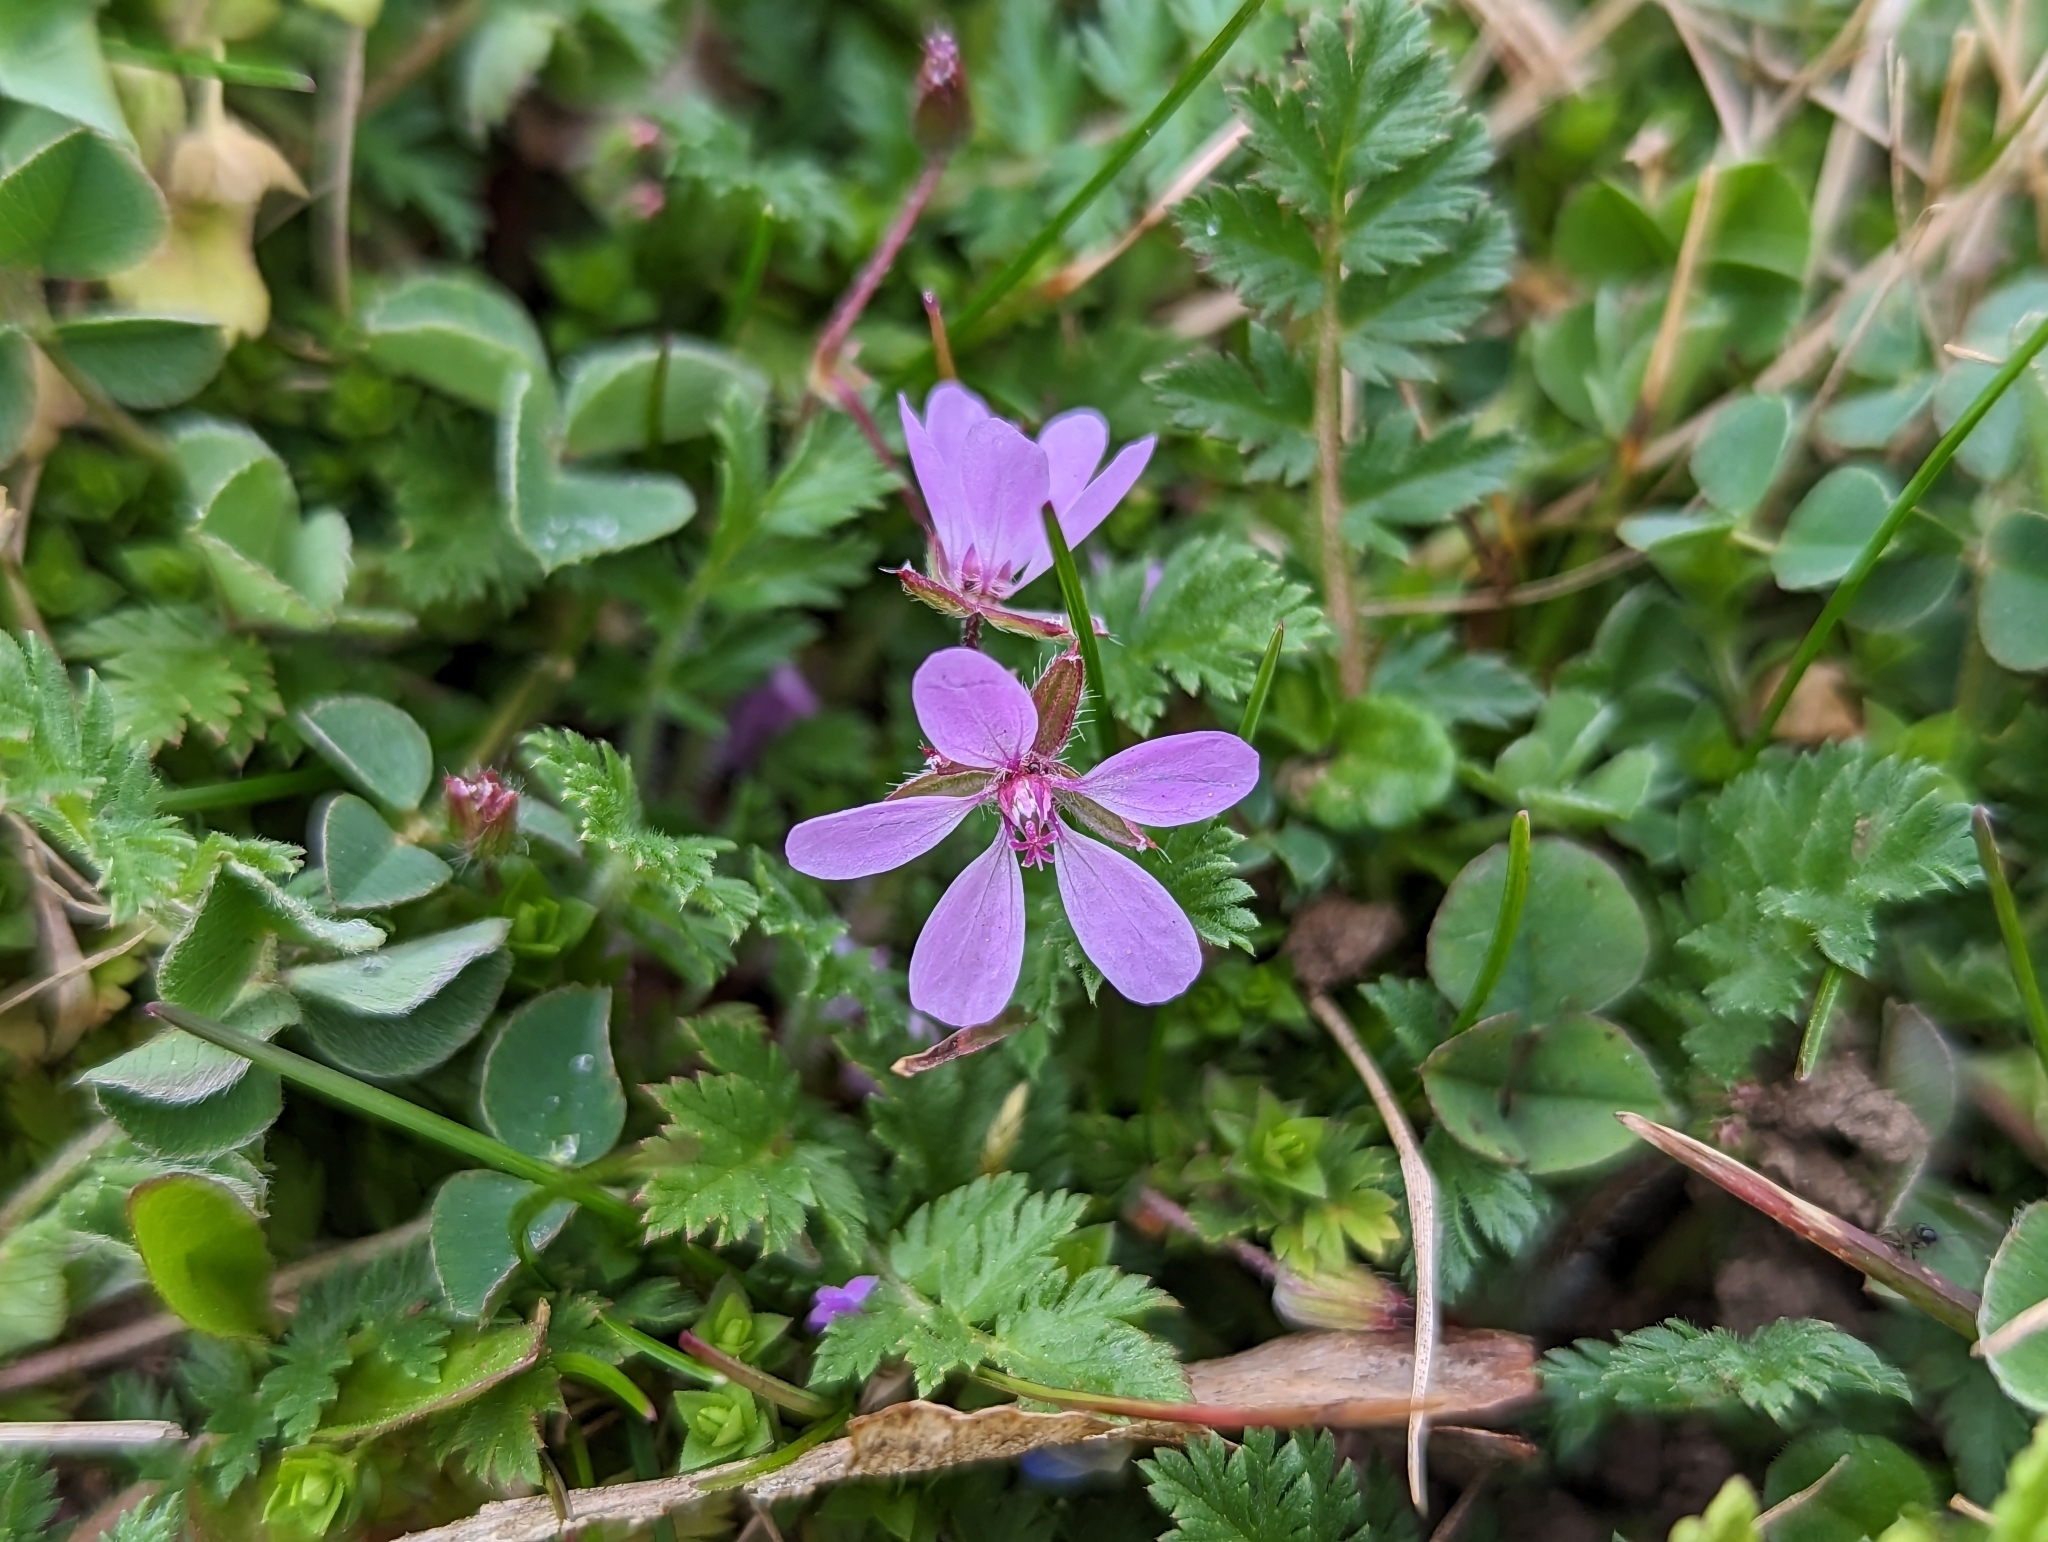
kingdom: Plantae
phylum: Tracheophyta
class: Magnoliopsida
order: Geraniales
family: Geraniaceae
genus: Erodium
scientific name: Erodium cicutarium
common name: Common stork's-bill
